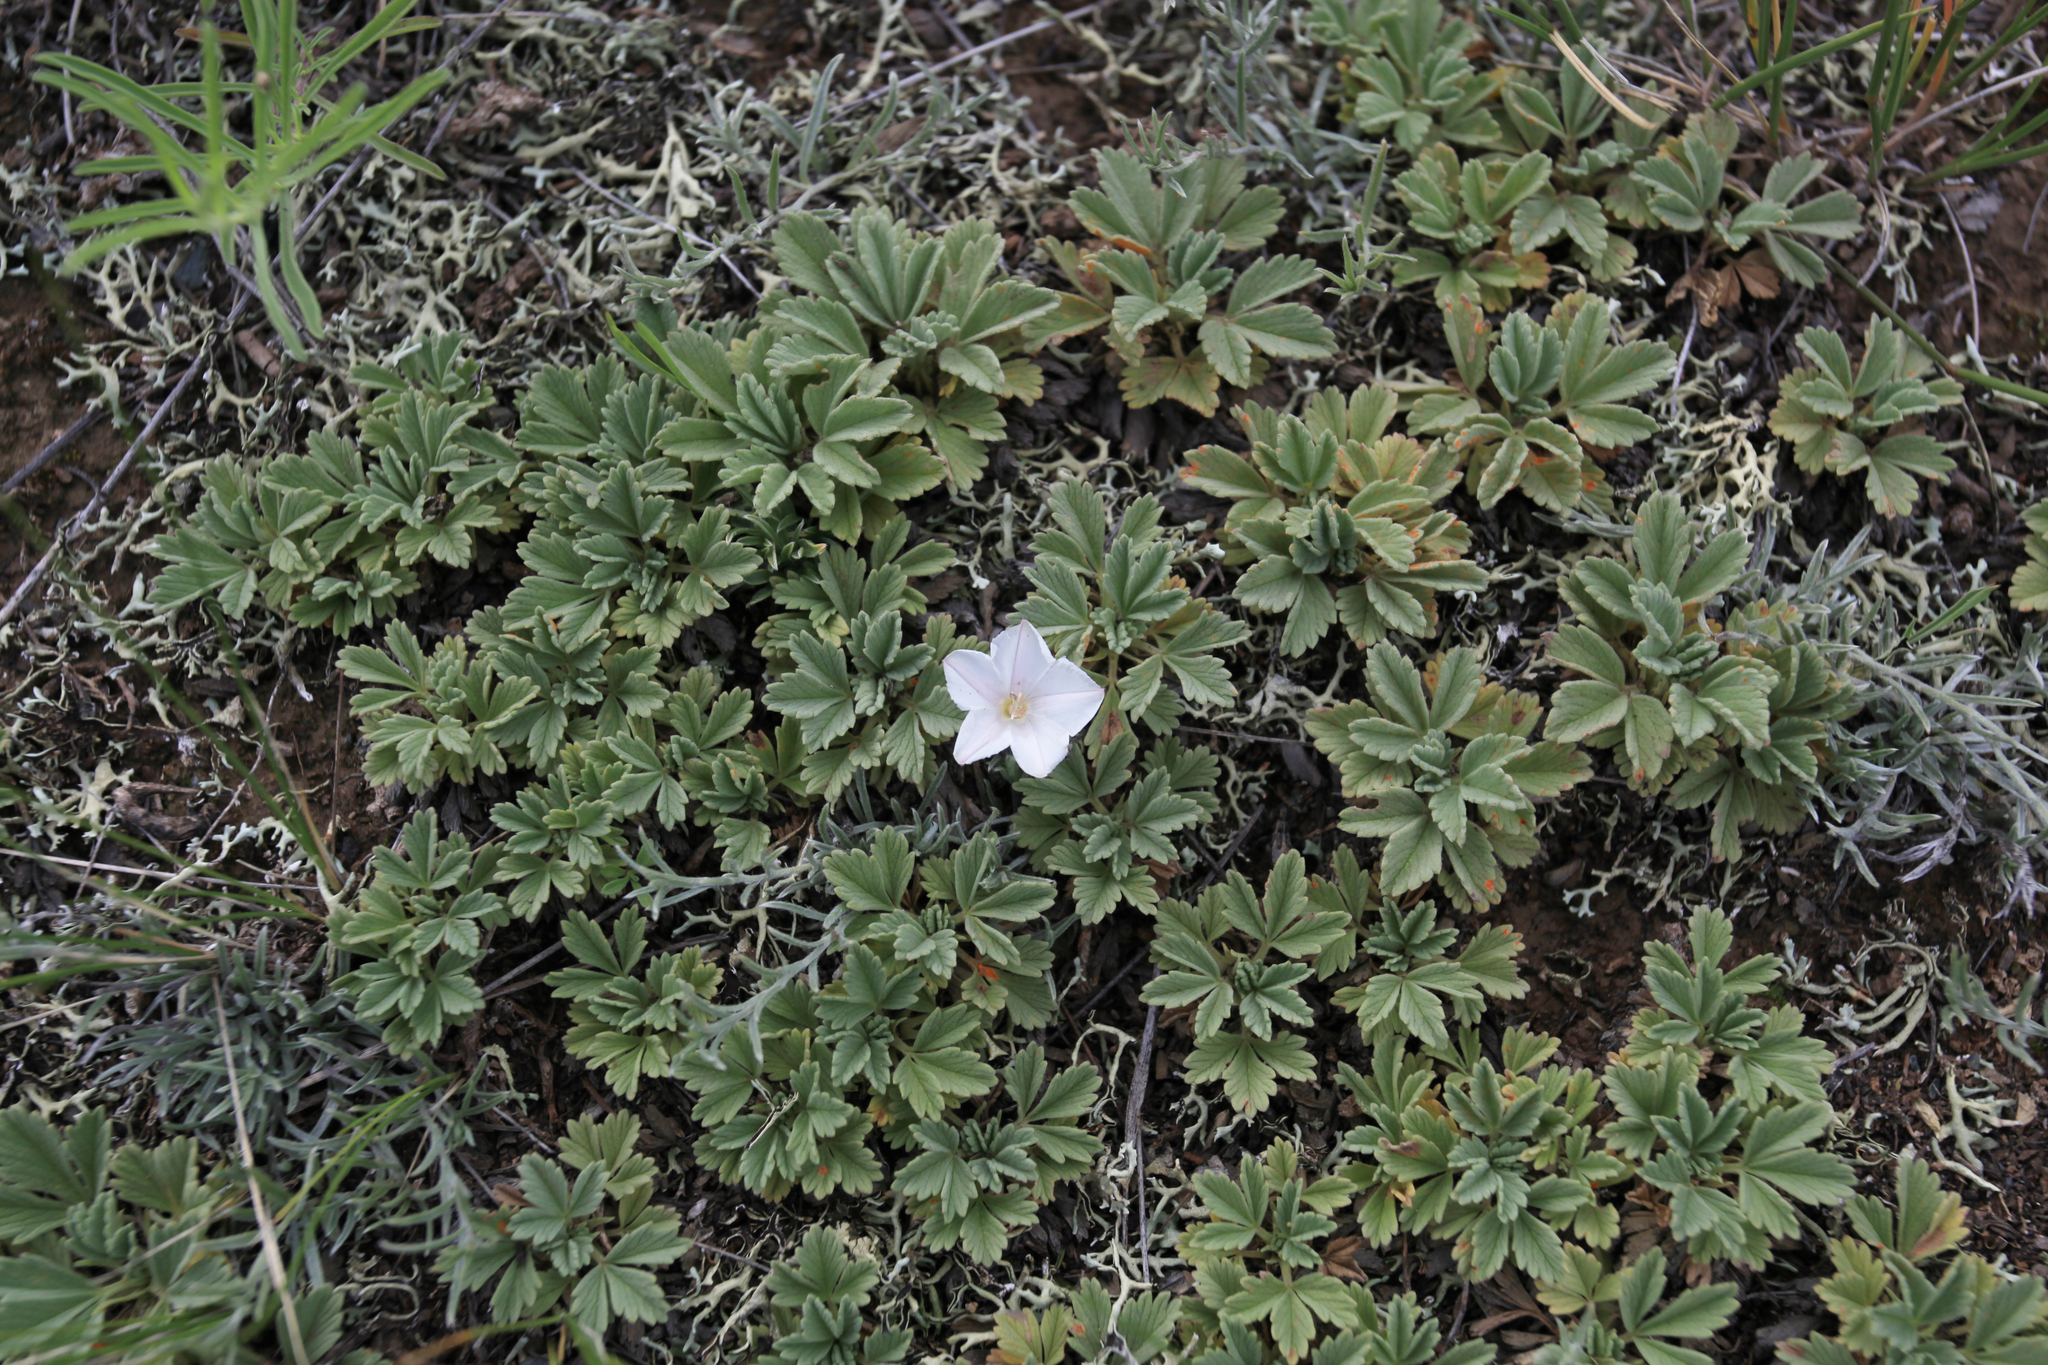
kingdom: Plantae
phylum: Tracheophyta
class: Magnoliopsida
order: Solanales
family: Convolvulaceae
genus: Convolvulus
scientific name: Convolvulus ammannii
